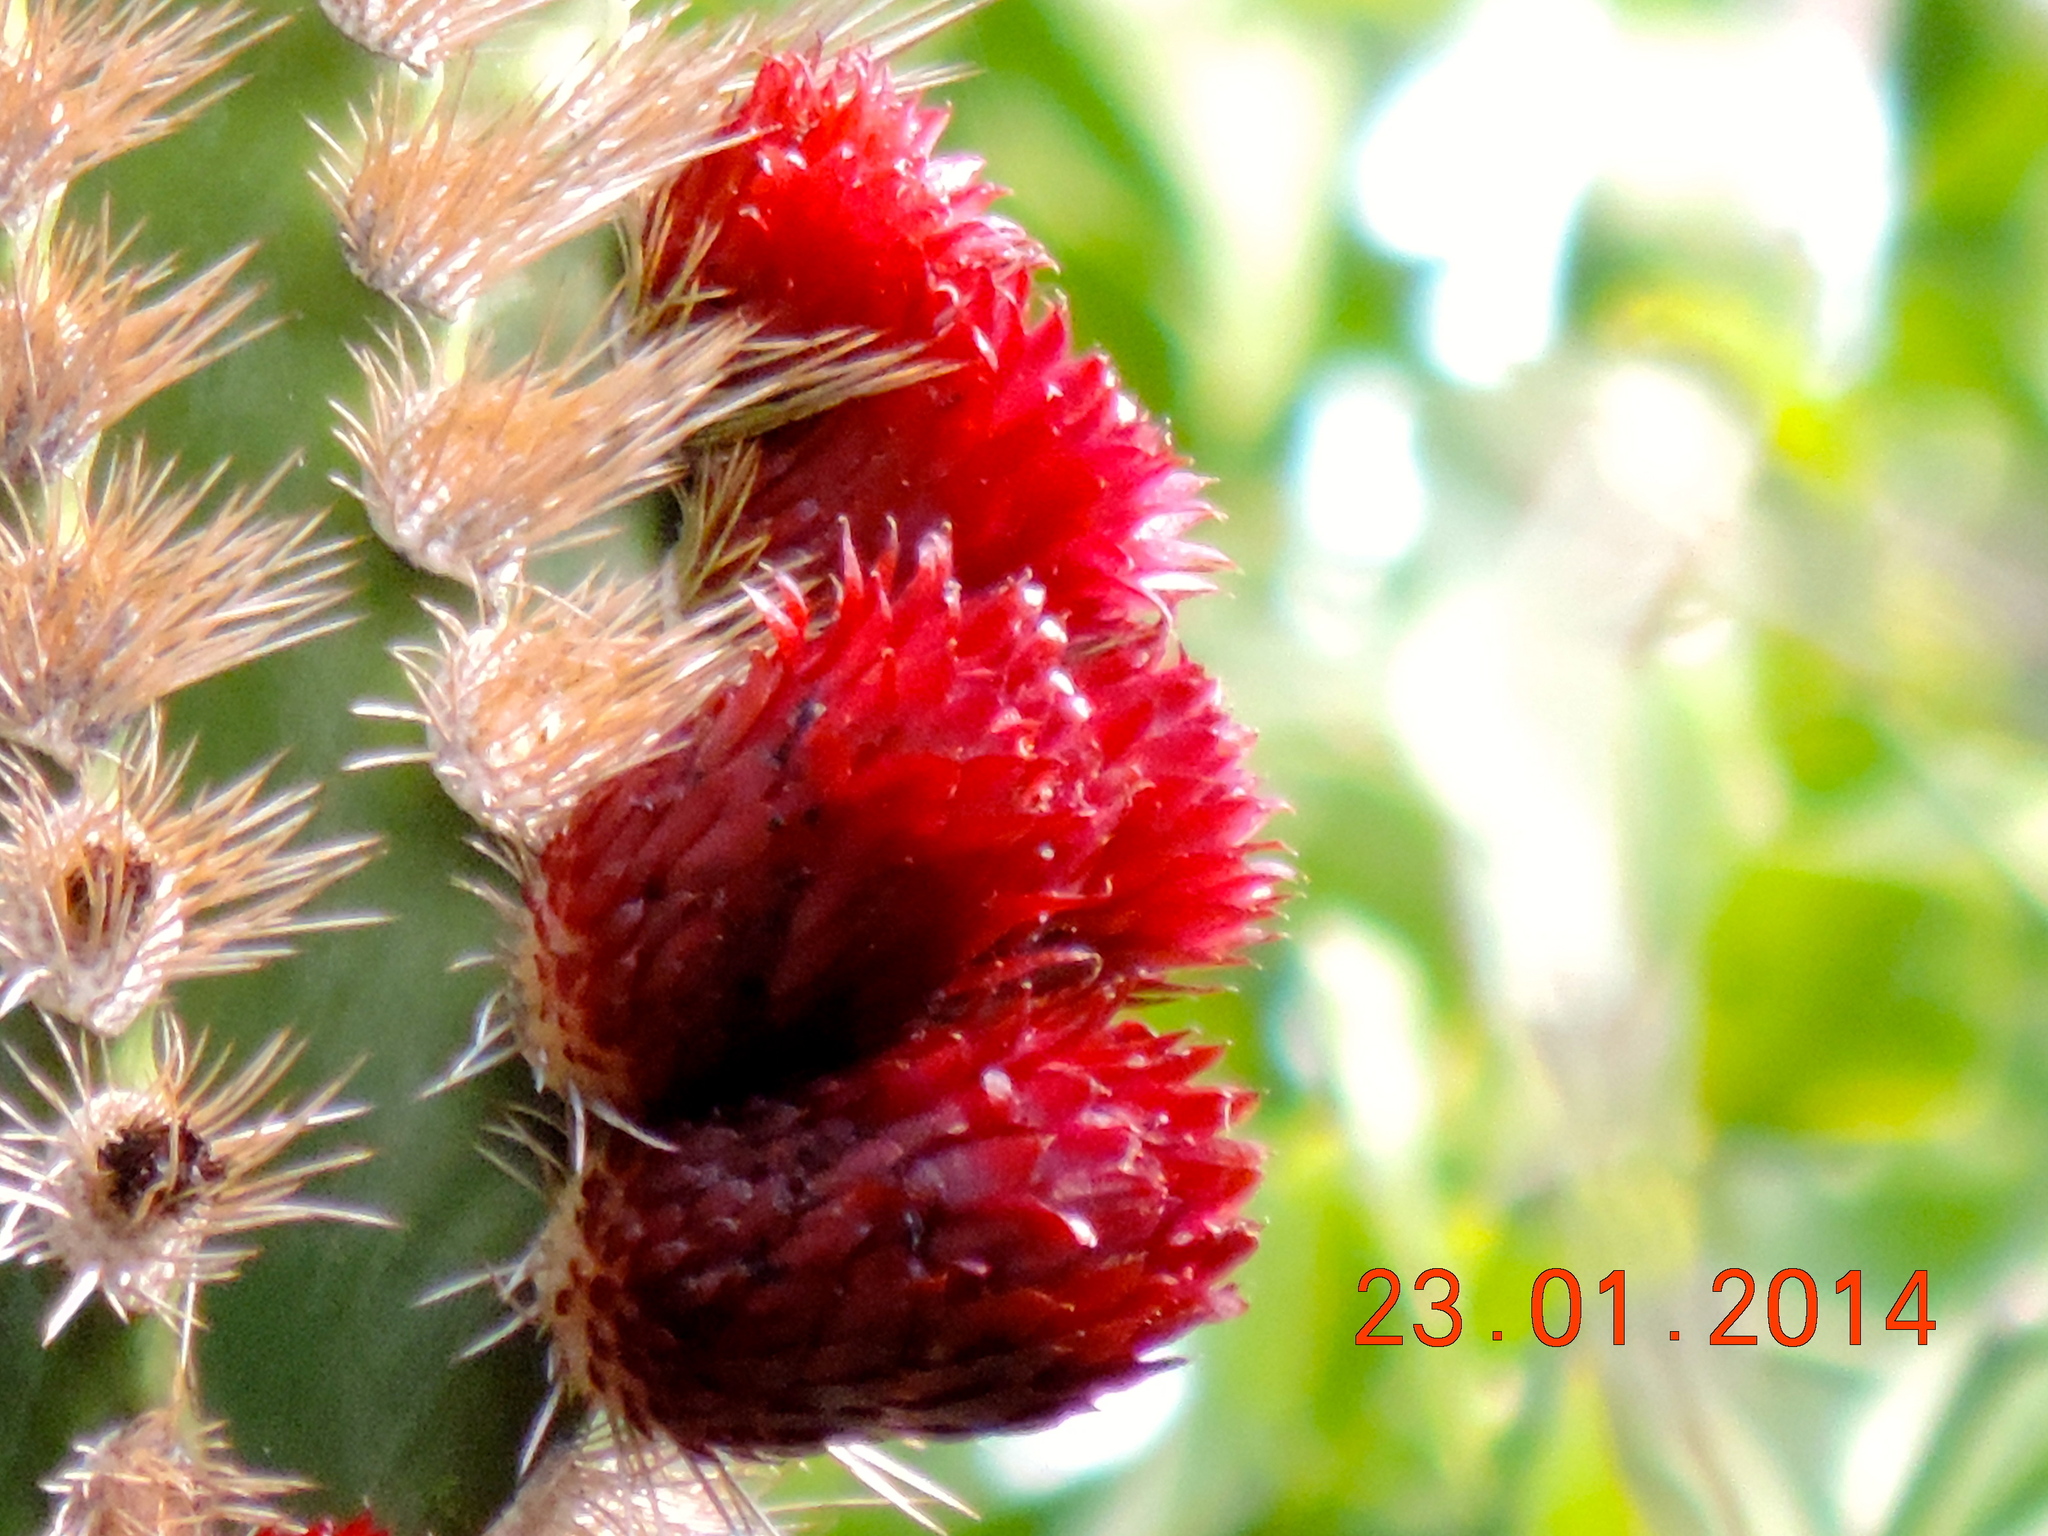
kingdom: Plantae
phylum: Tracheophyta
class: Magnoliopsida
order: Caryophyllales
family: Cactaceae
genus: Pachycereus
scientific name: Pachycereus pecten-aboriginum
